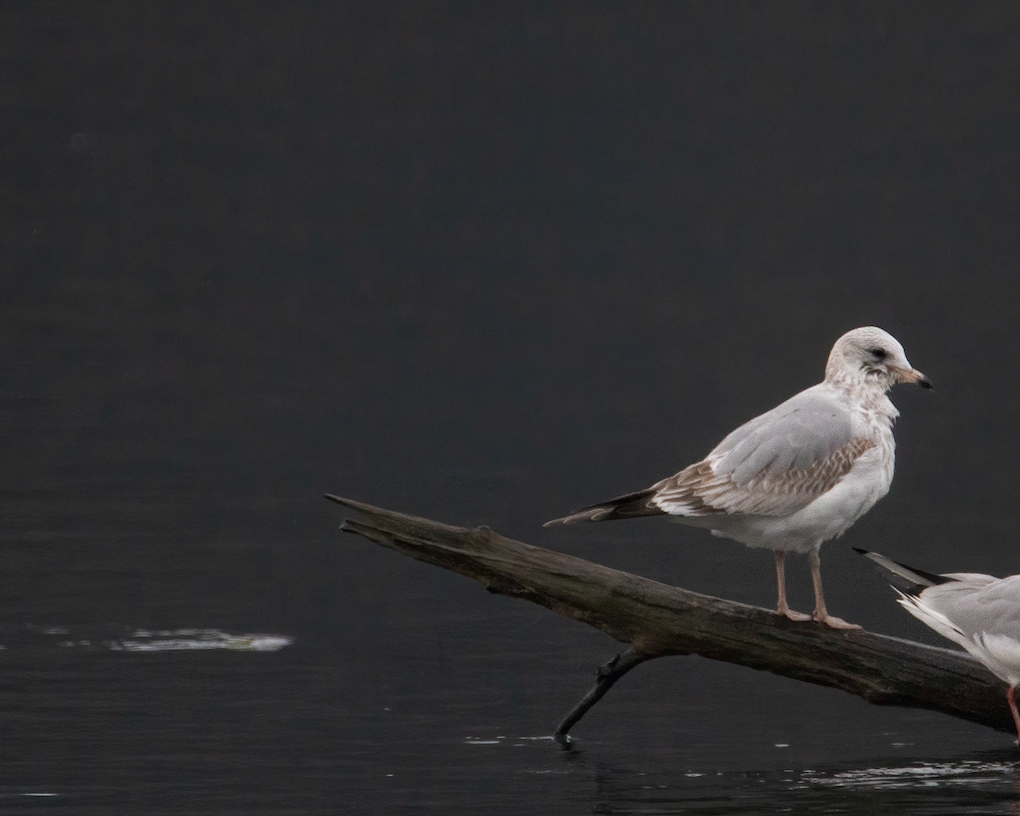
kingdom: Animalia
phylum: Chordata
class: Aves
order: Charadriiformes
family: Laridae
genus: Larus
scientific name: Larus canus
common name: Mew gull
